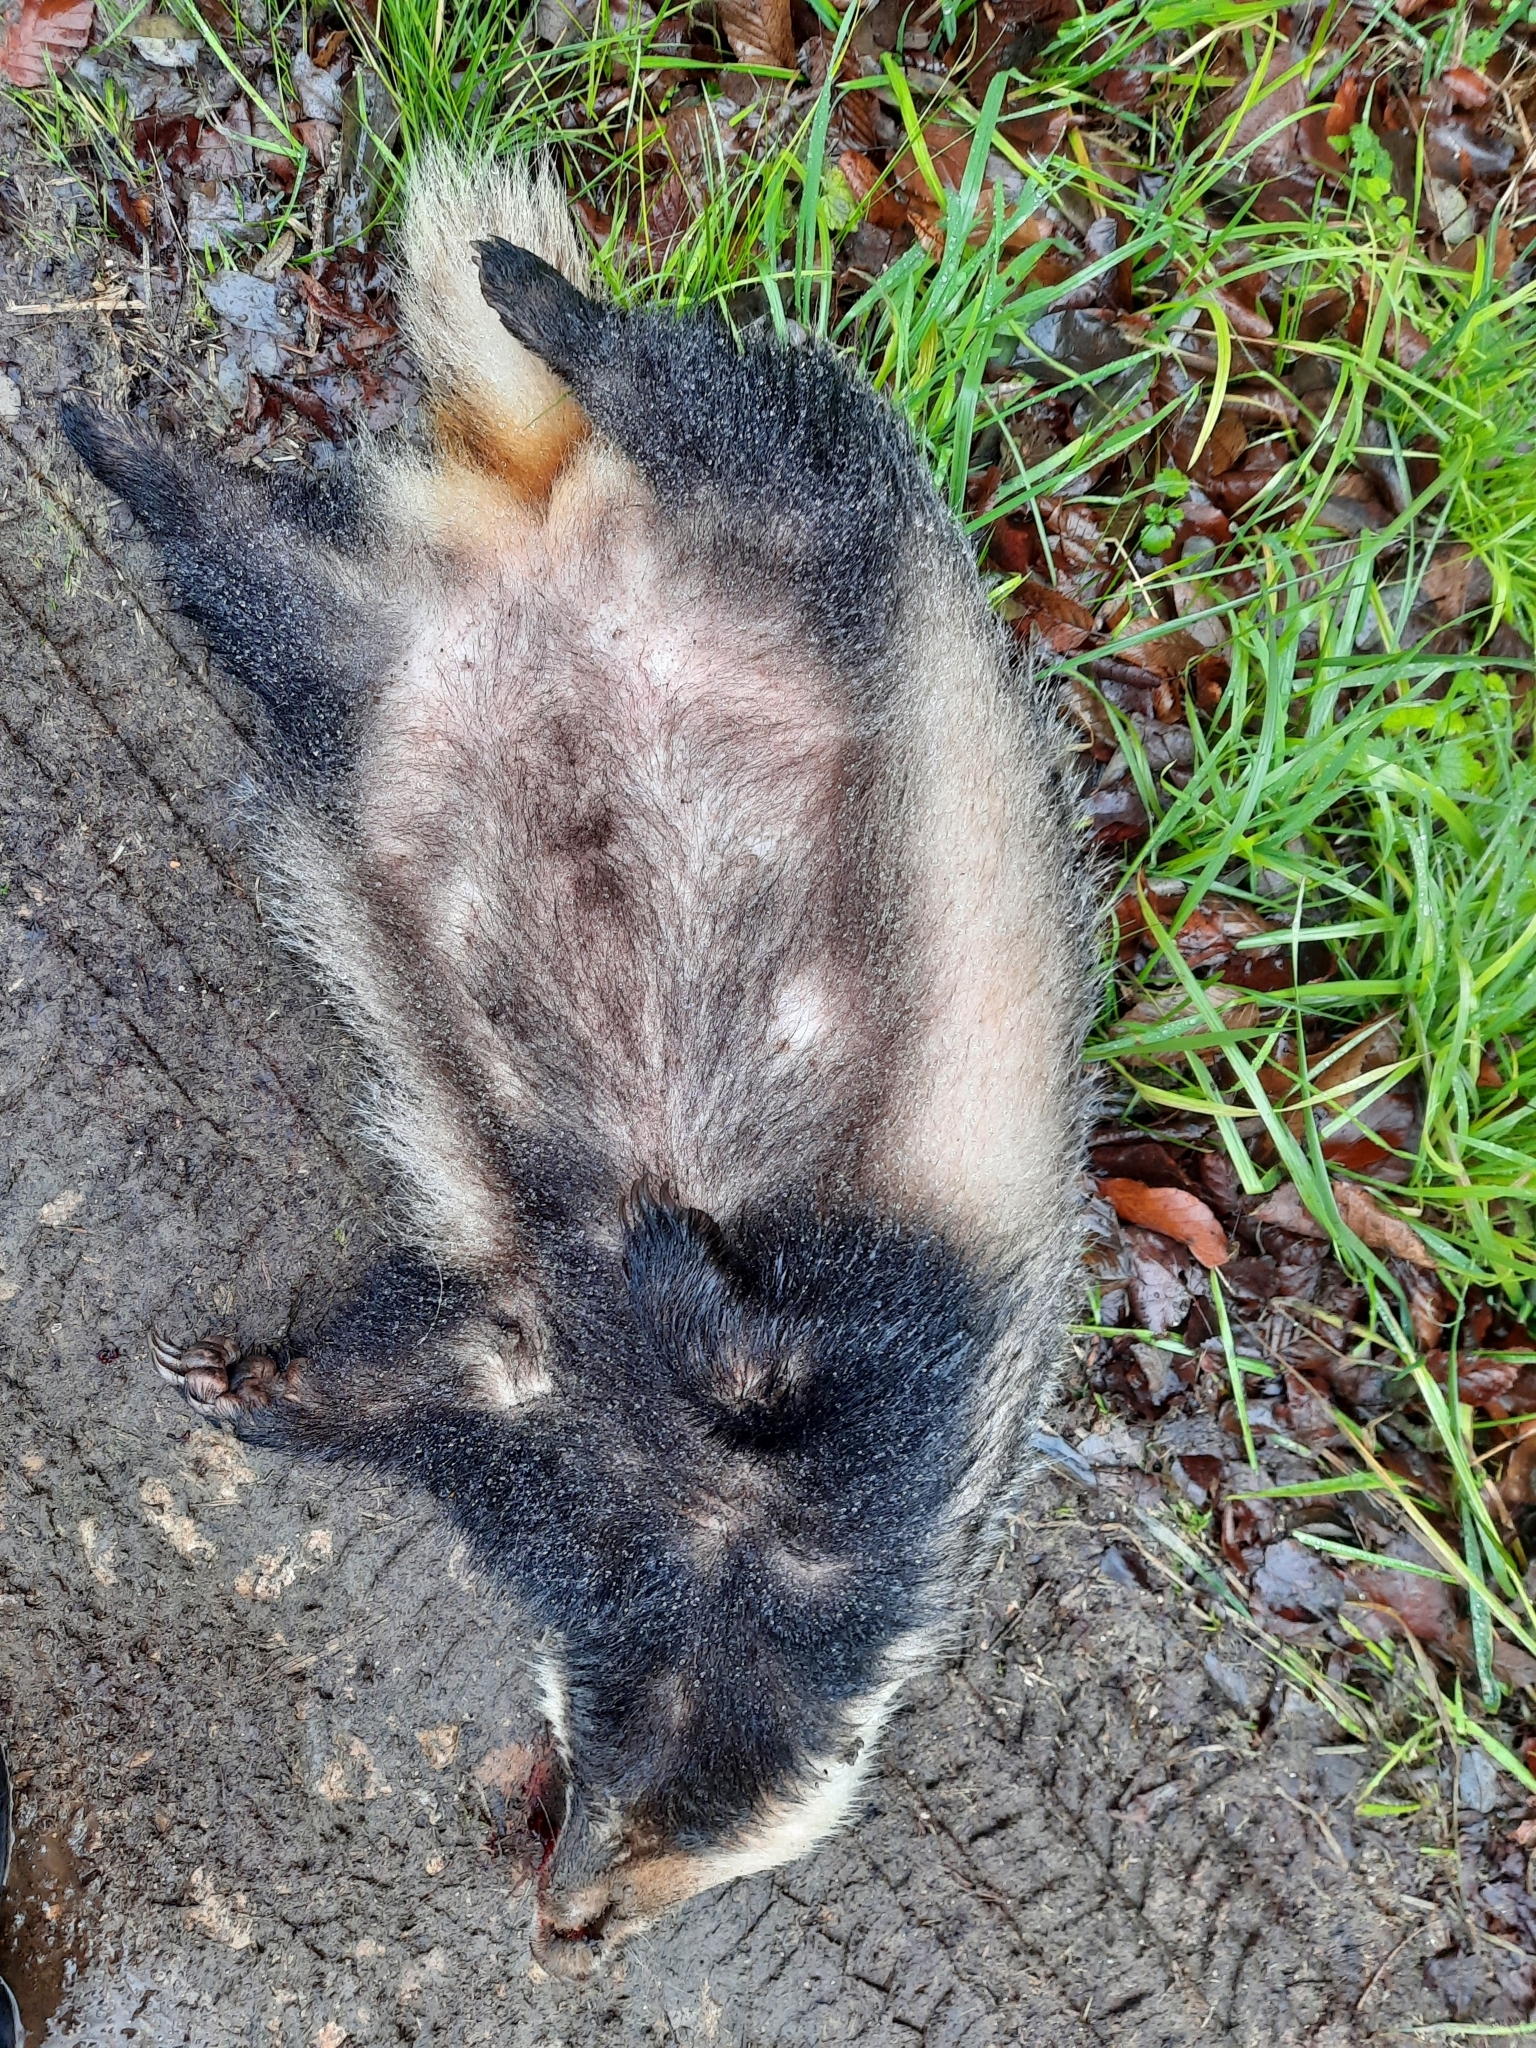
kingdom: Animalia
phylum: Chordata
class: Mammalia
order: Carnivora
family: Mustelidae
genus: Meles
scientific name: Meles meles
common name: Eurasian badger
